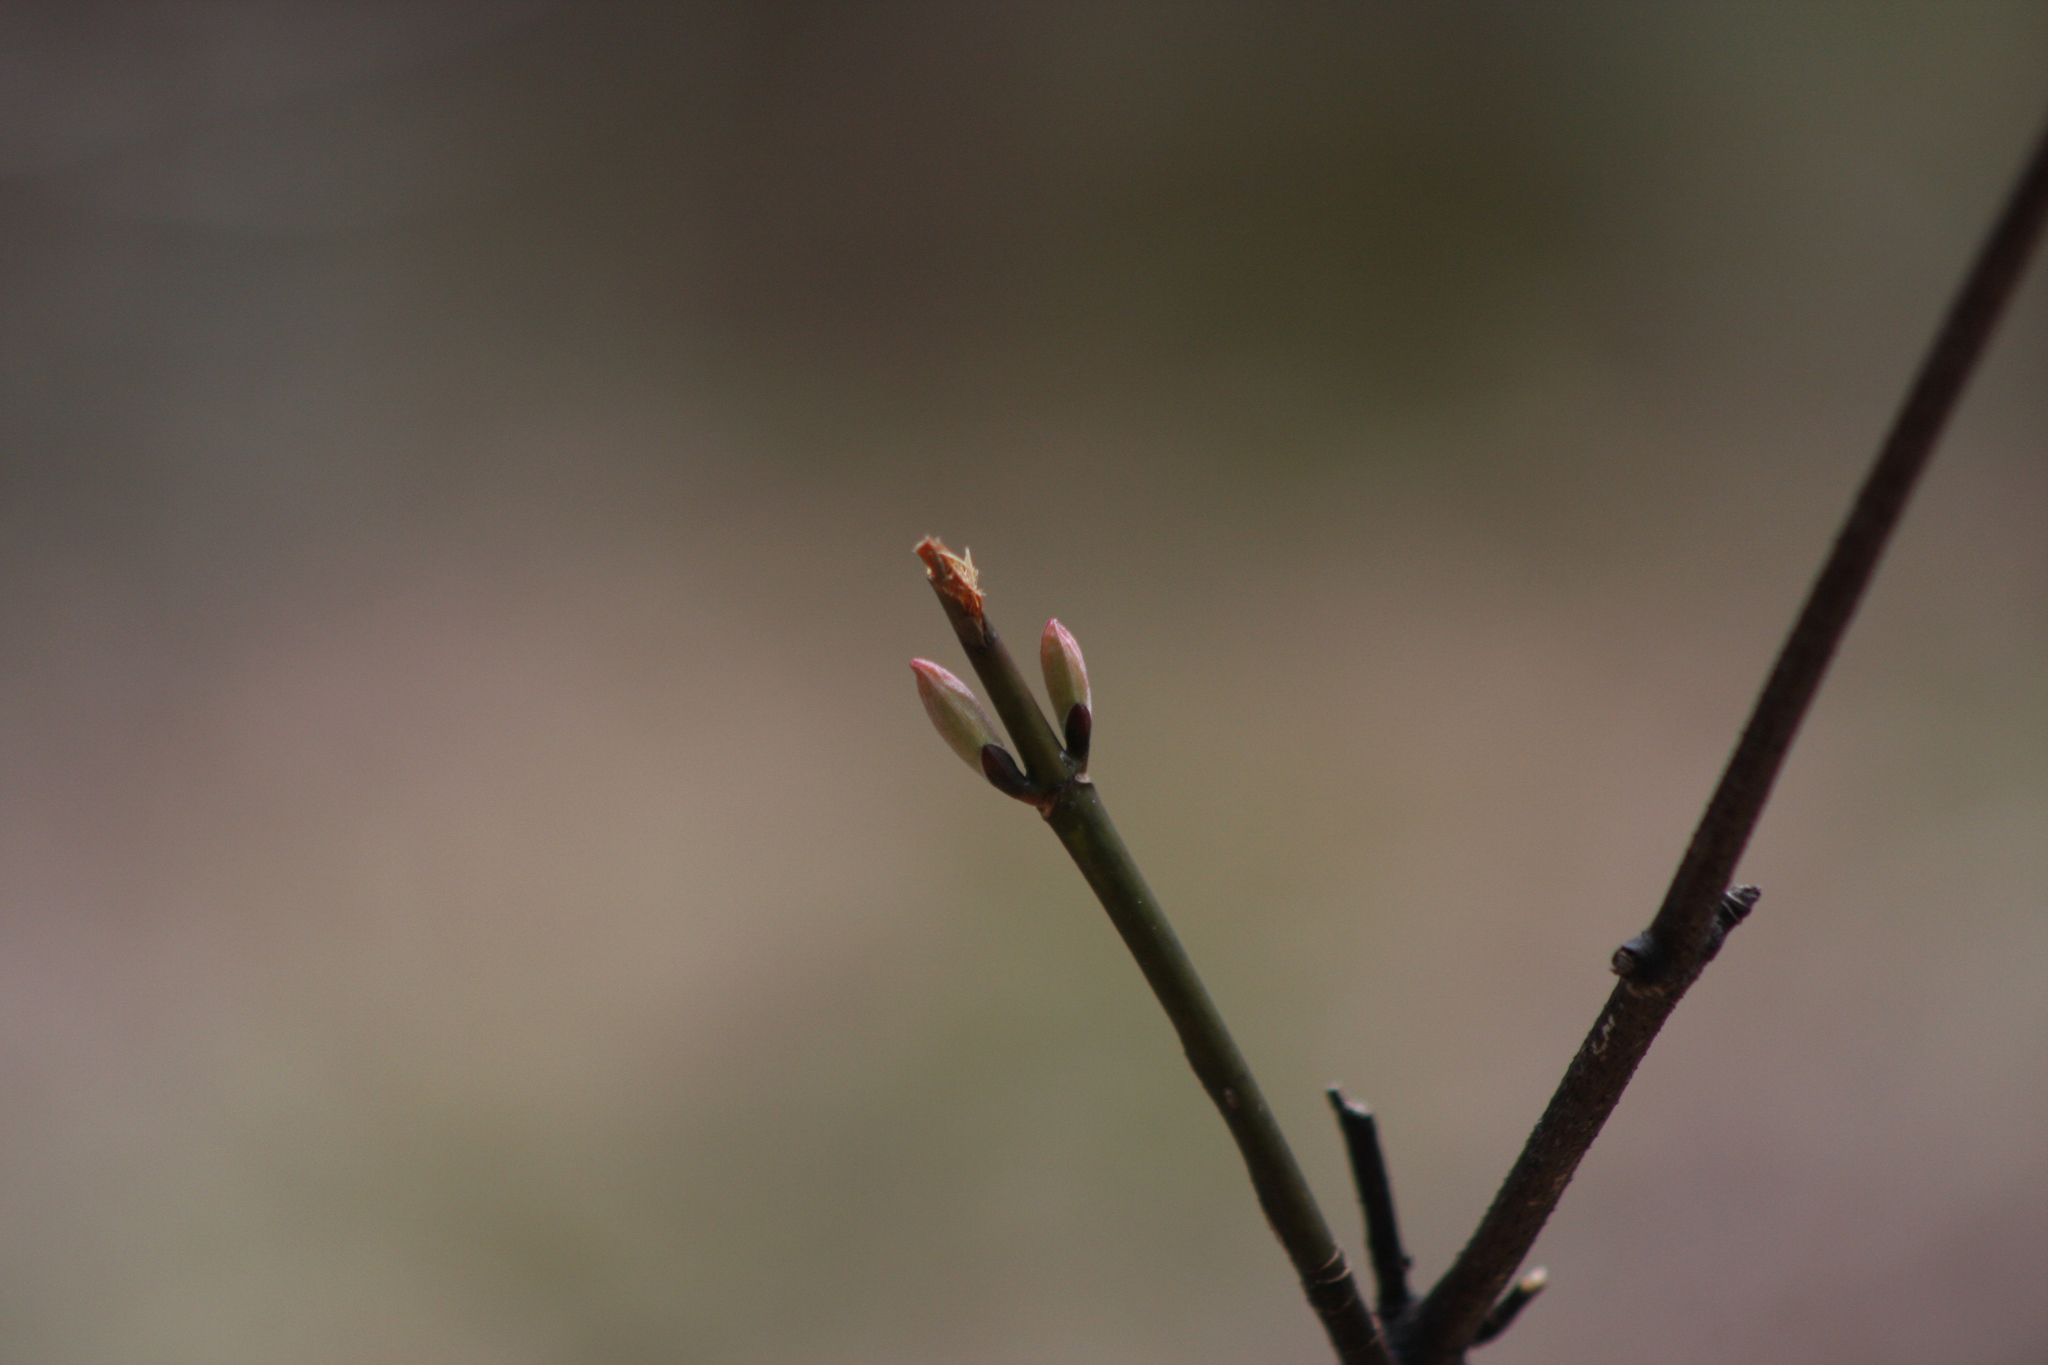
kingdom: Plantae
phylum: Tracheophyta
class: Magnoliopsida
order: Sapindales
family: Sapindaceae
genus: Acer
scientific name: Acer pensylvanicum
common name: Moosewood
